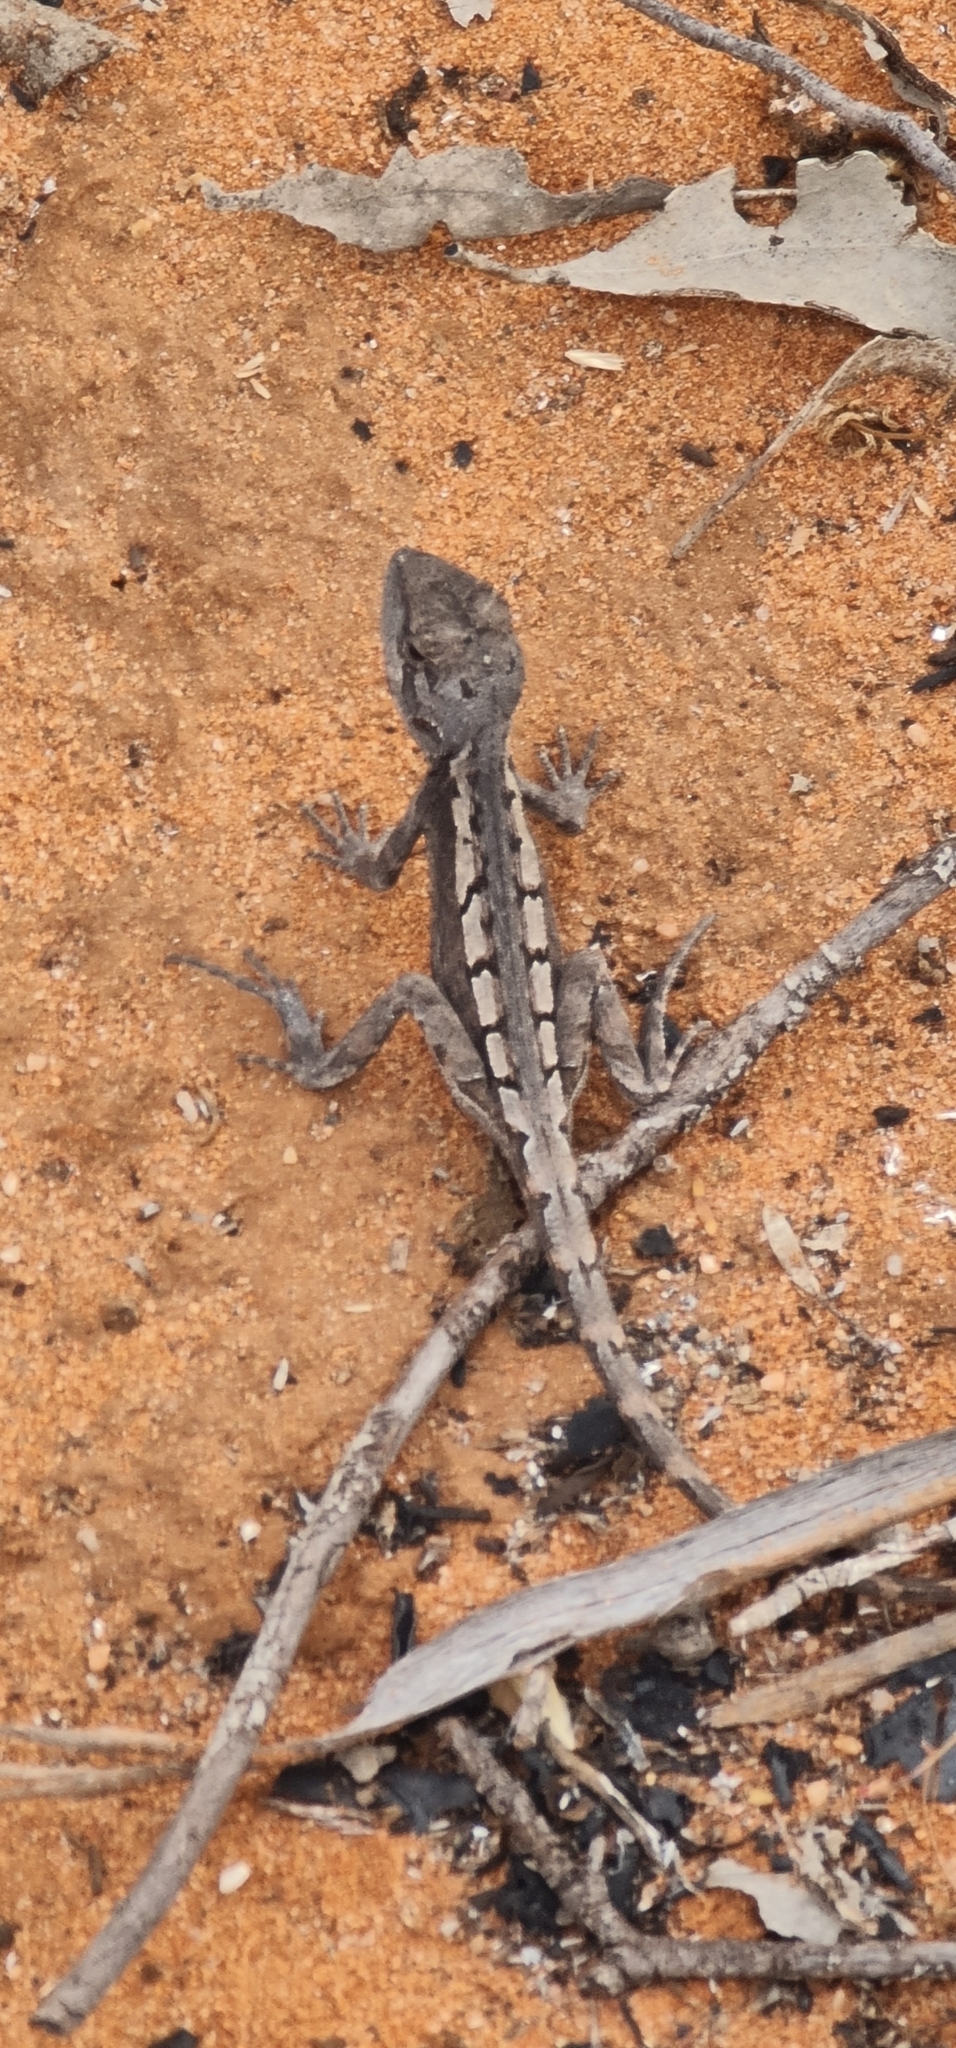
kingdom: Animalia
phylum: Chordata
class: Squamata
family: Agamidae
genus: Diporiphora
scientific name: Diporiphora nobbi
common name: Nobbi
